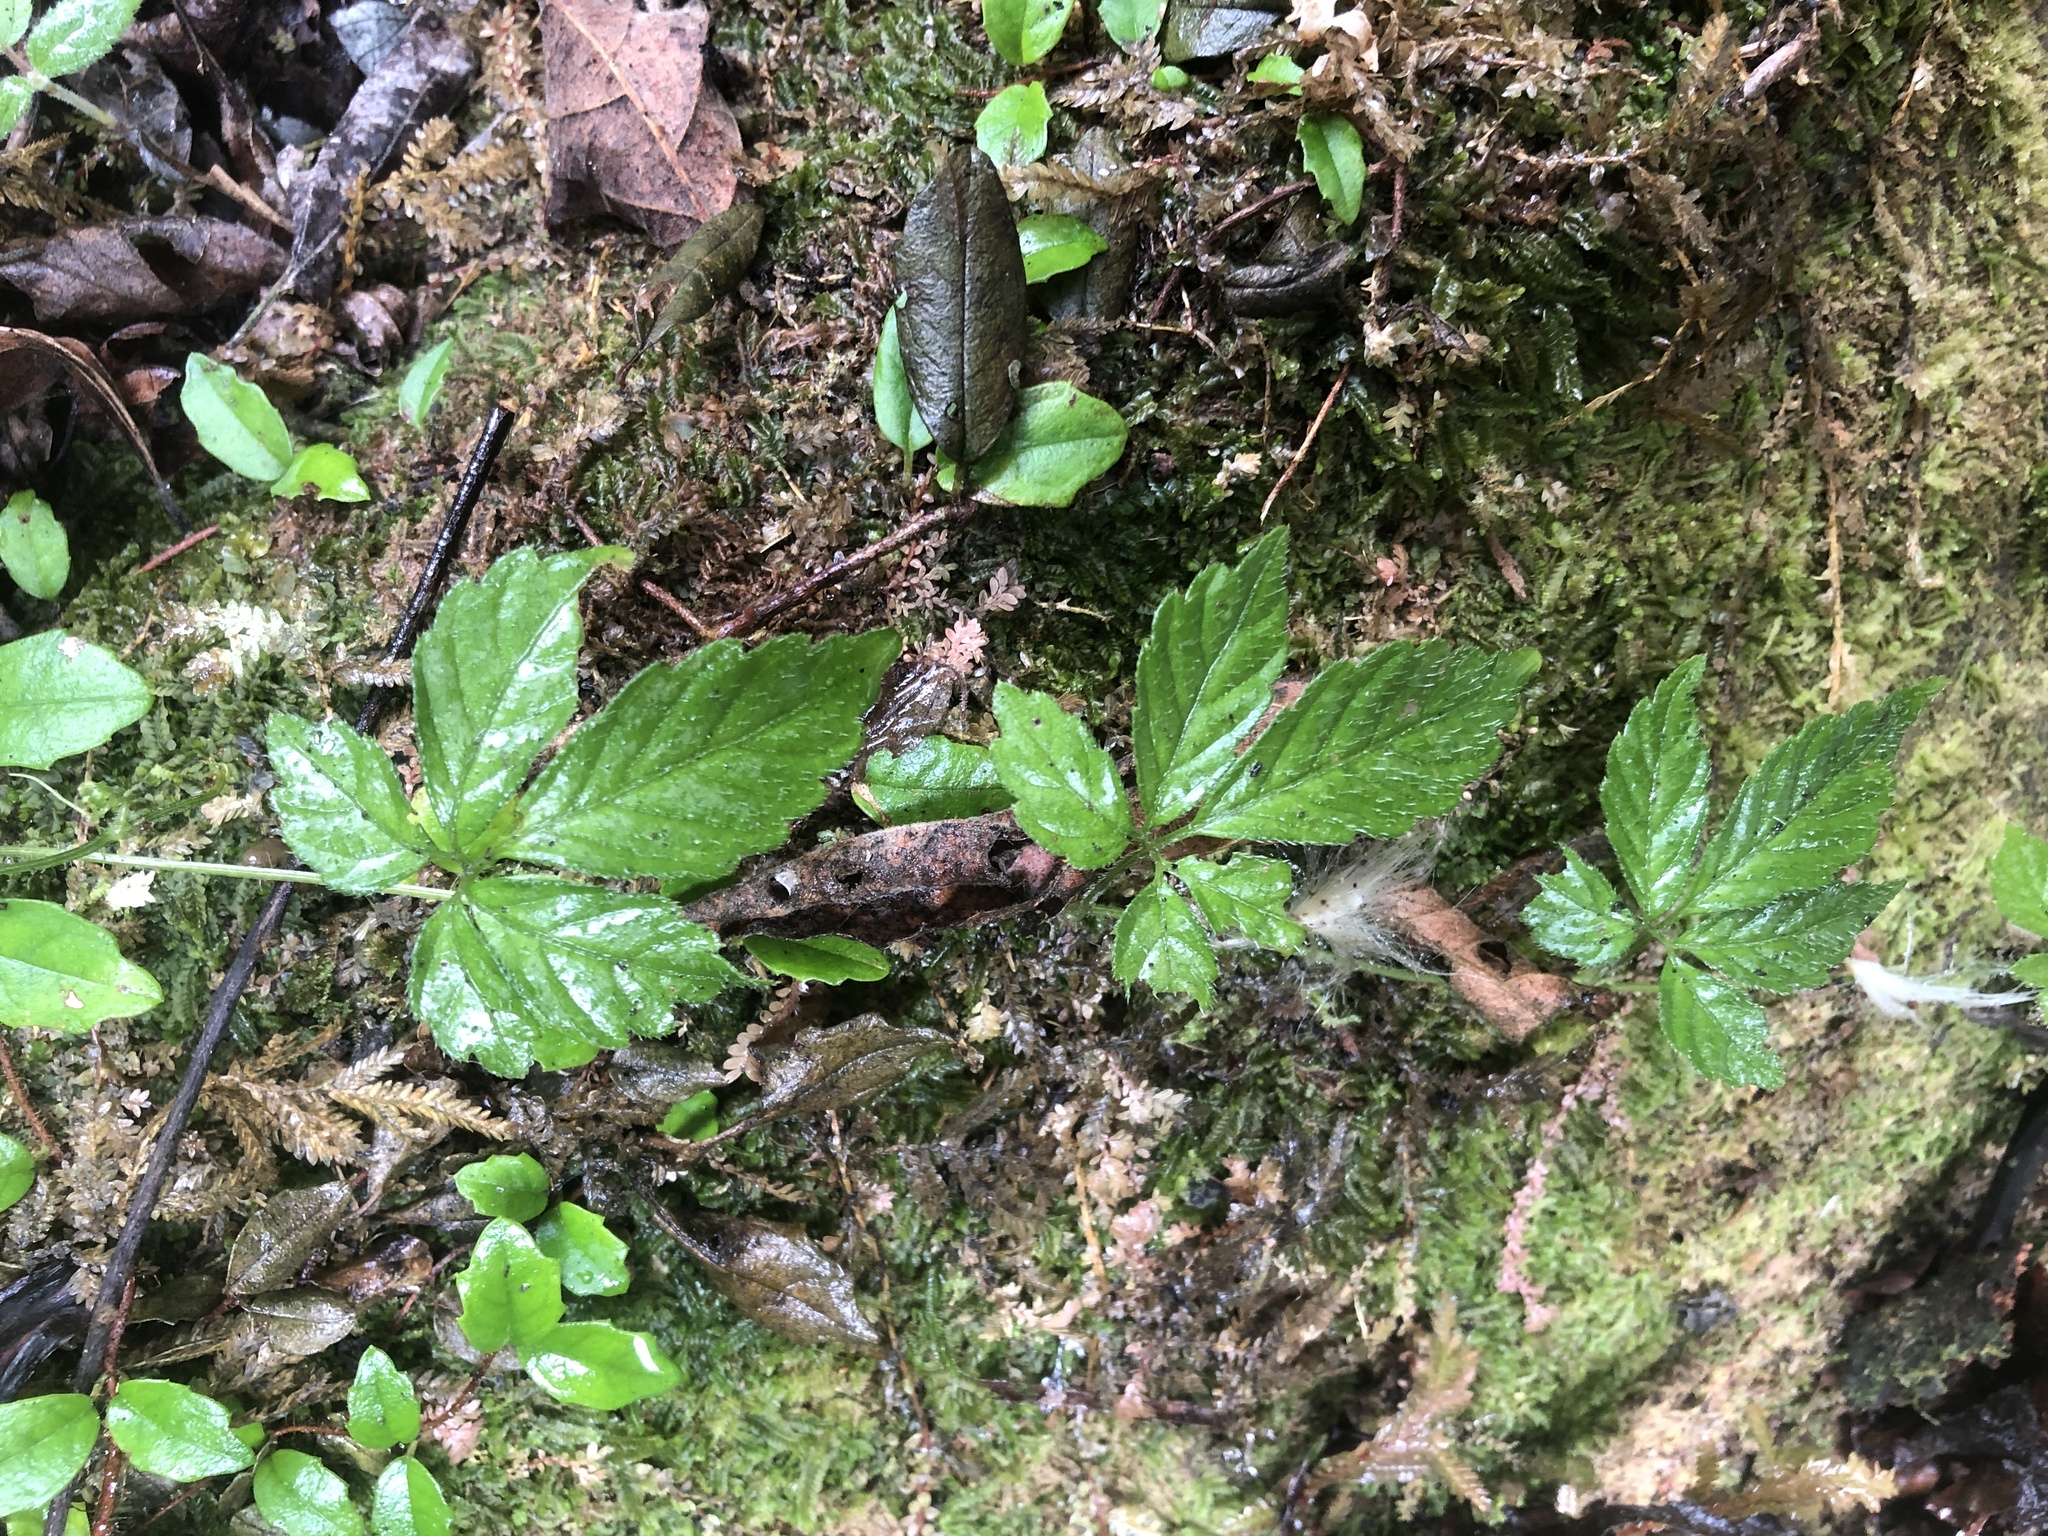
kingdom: Plantae
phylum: Tracheophyta
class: Magnoliopsida
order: Cucurbitales
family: Cucurbitaceae
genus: Gynostemma
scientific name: Gynostemma pentaphyllum
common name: Gynostemma
